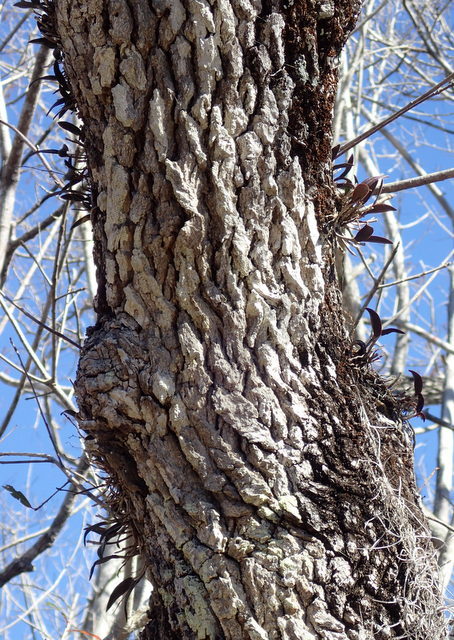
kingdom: Plantae
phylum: Tracheophyta
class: Liliopsida
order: Asparagales
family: Orchidaceae
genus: Epidendrum
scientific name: Epidendrum conopseum
